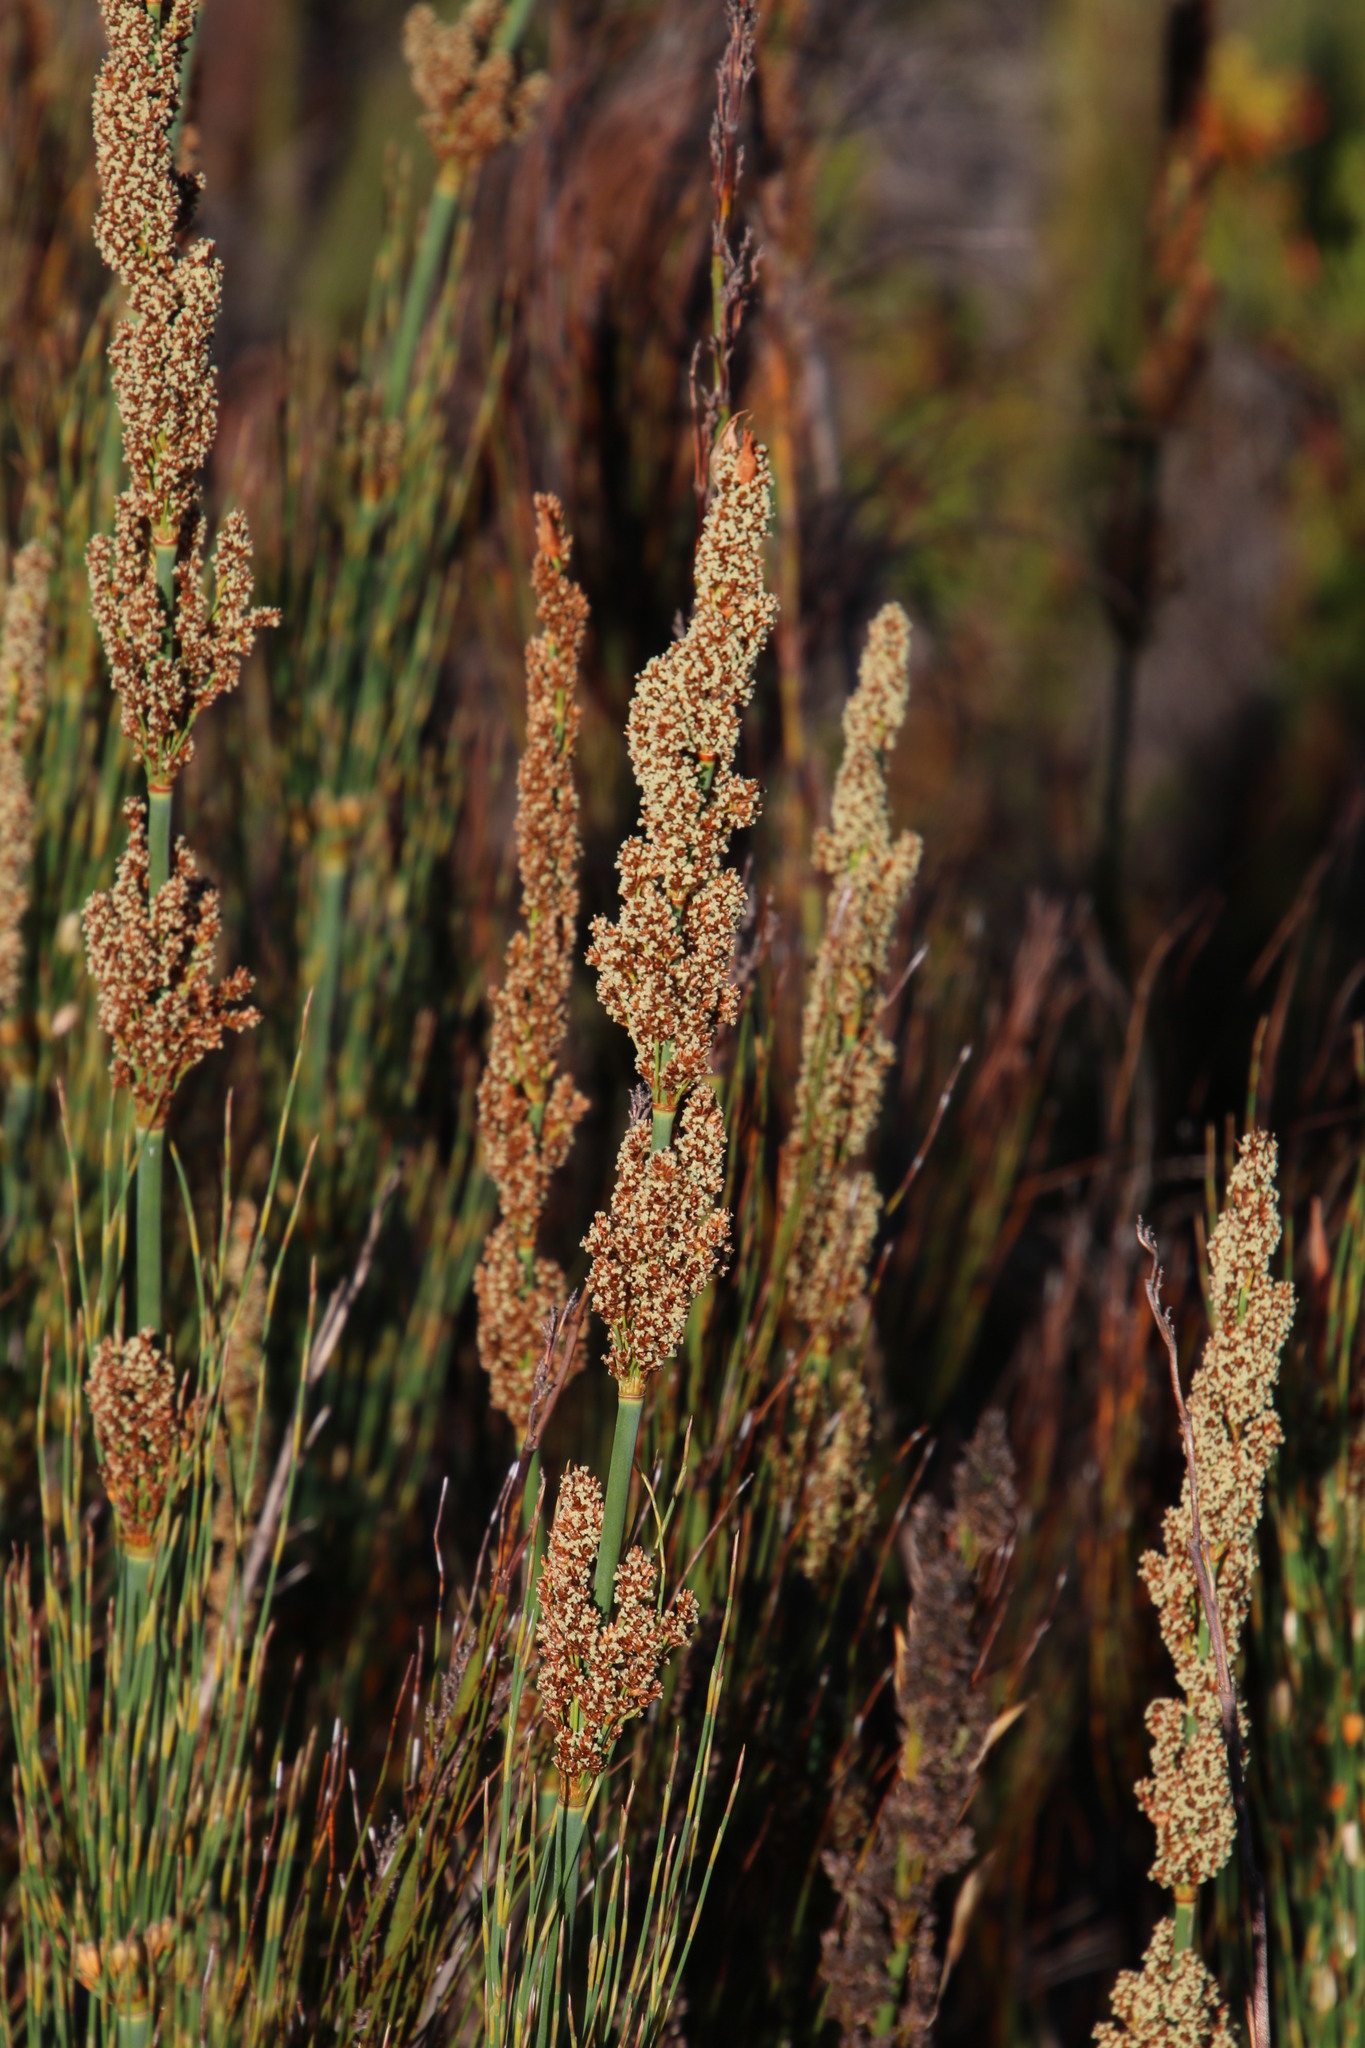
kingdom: Plantae
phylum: Tracheophyta
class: Liliopsida
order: Poales
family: Restionaceae
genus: Elegia
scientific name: Elegia capensis
